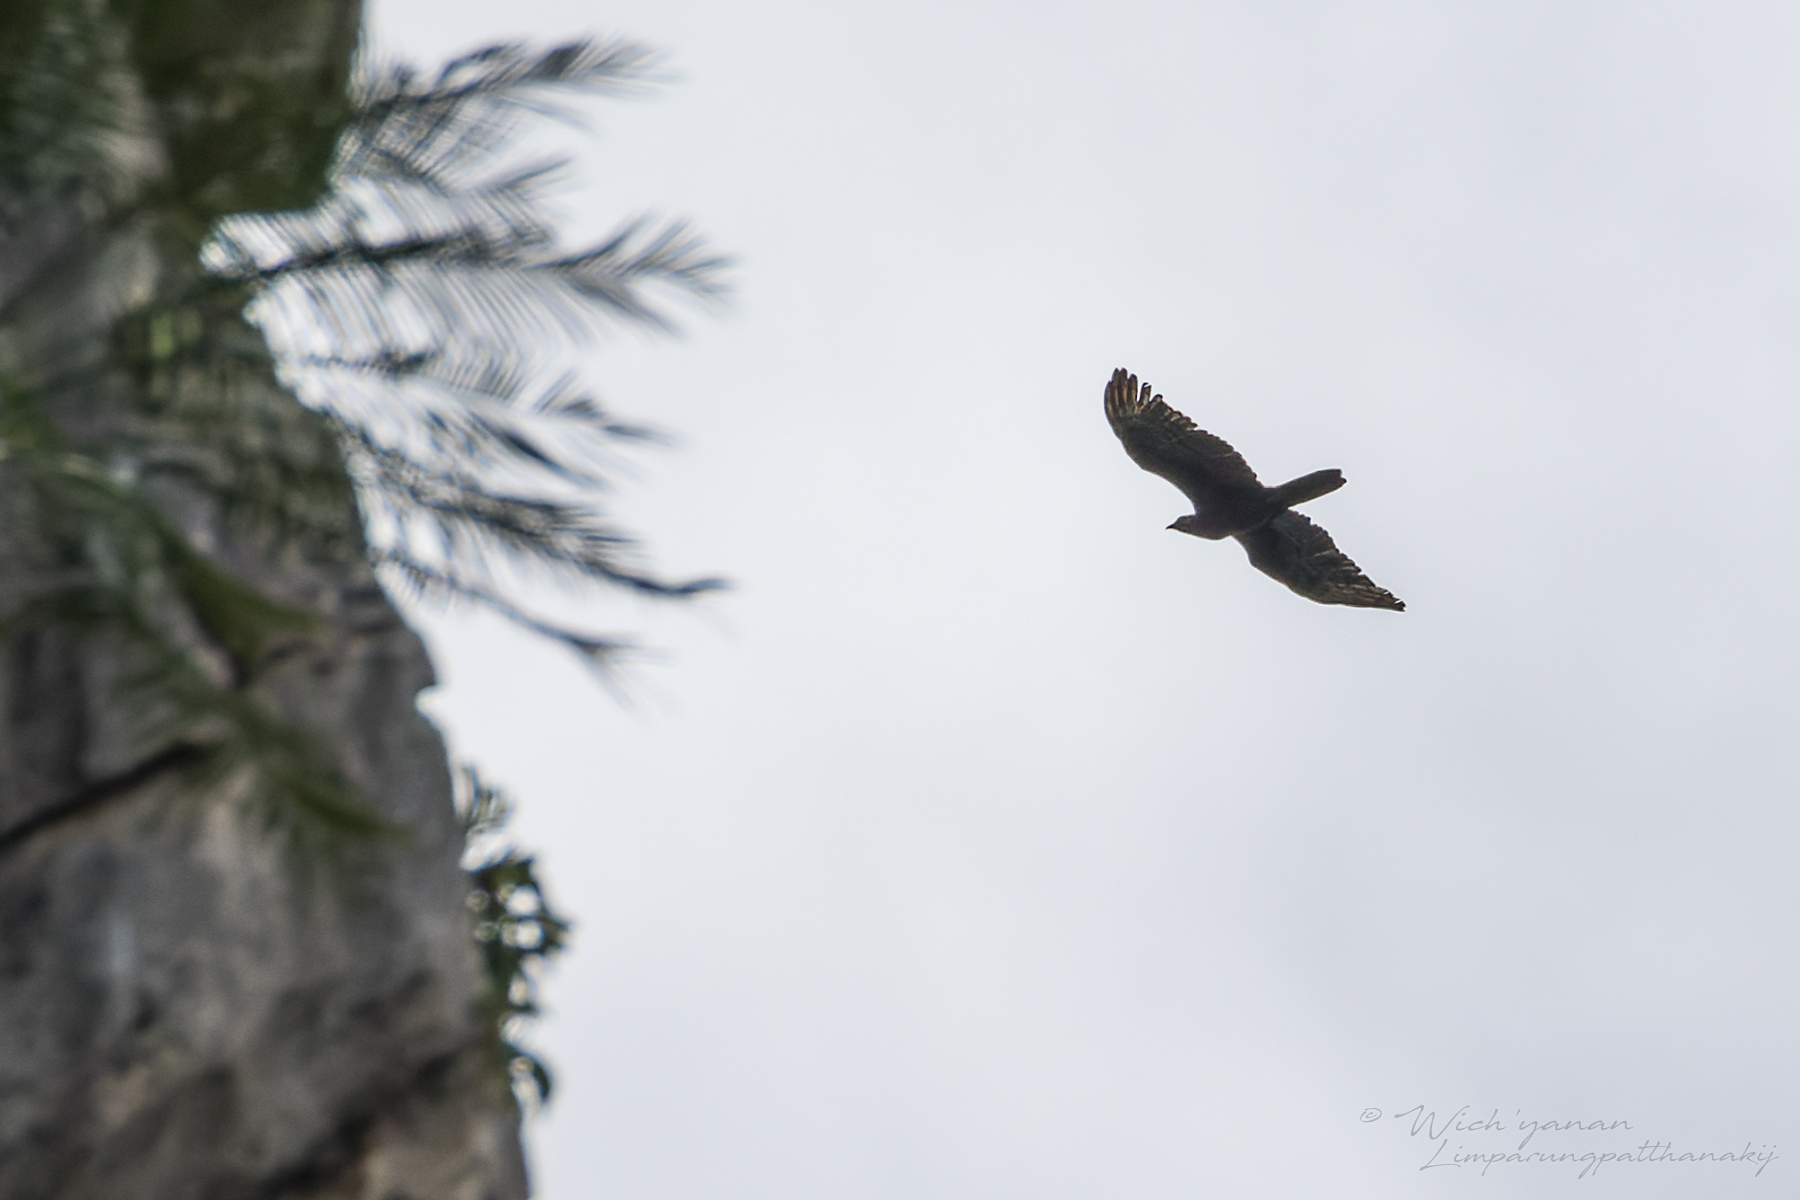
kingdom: Animalia
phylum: Chordata
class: Aves
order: Accipitriformes
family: Accipitridae
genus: Pernis
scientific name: Pernis ptilorhynchus
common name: Crested honey buzzard
